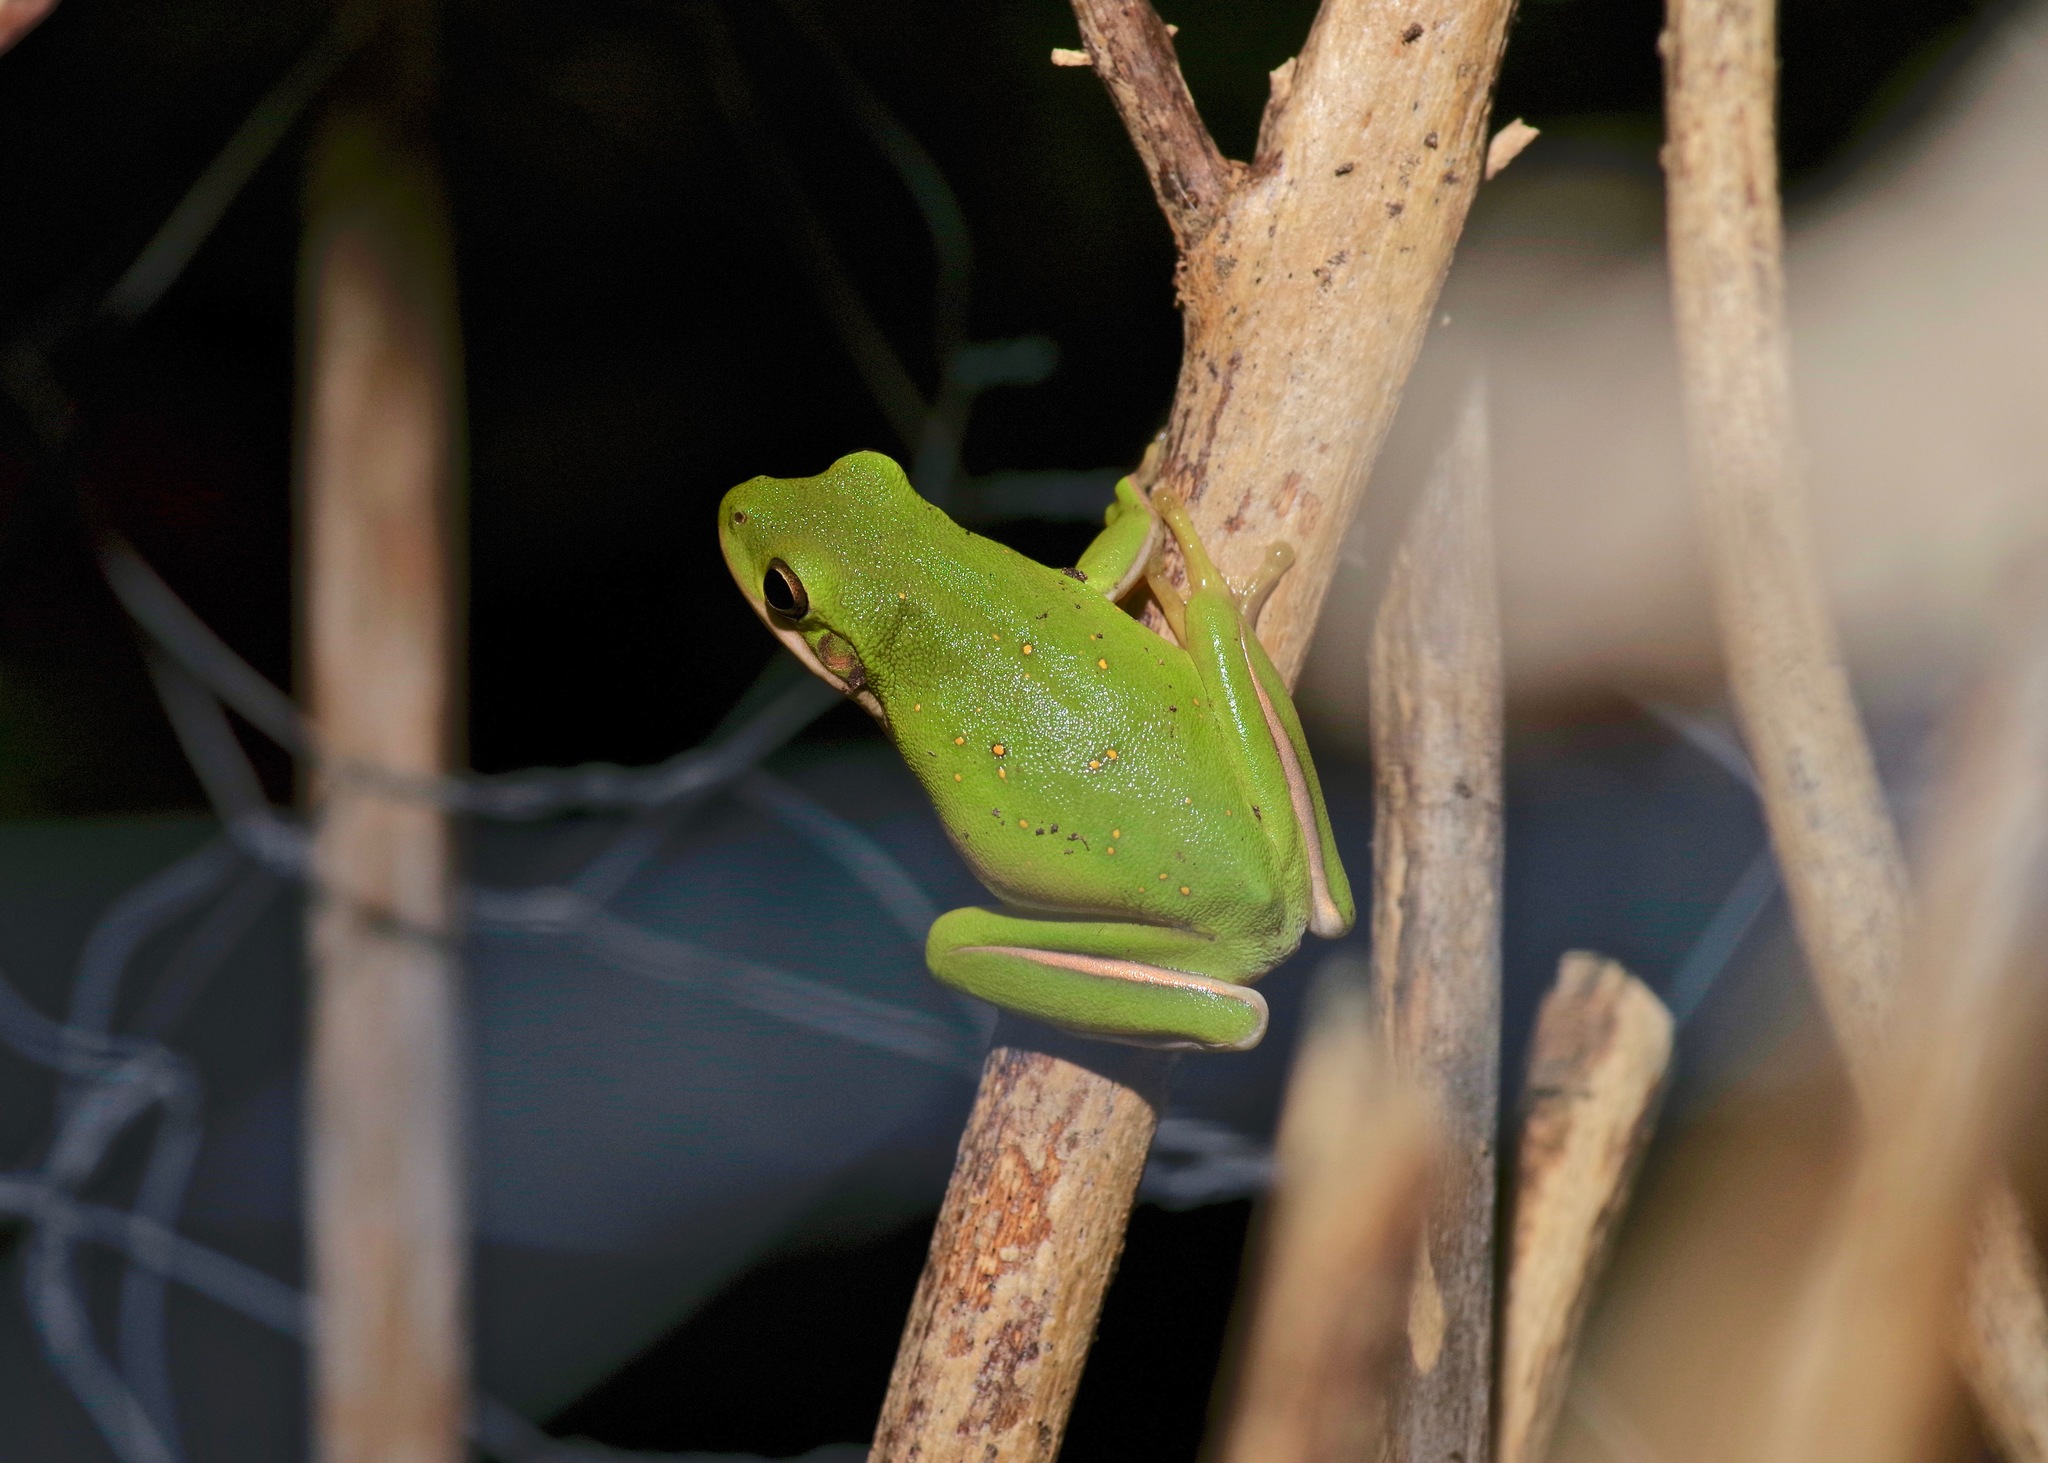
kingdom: Animalia
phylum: Chordata
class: Amphibia
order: Anura
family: Hylidae
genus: Dryophytes
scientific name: Dryophytes cinereus
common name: Green treefrog
